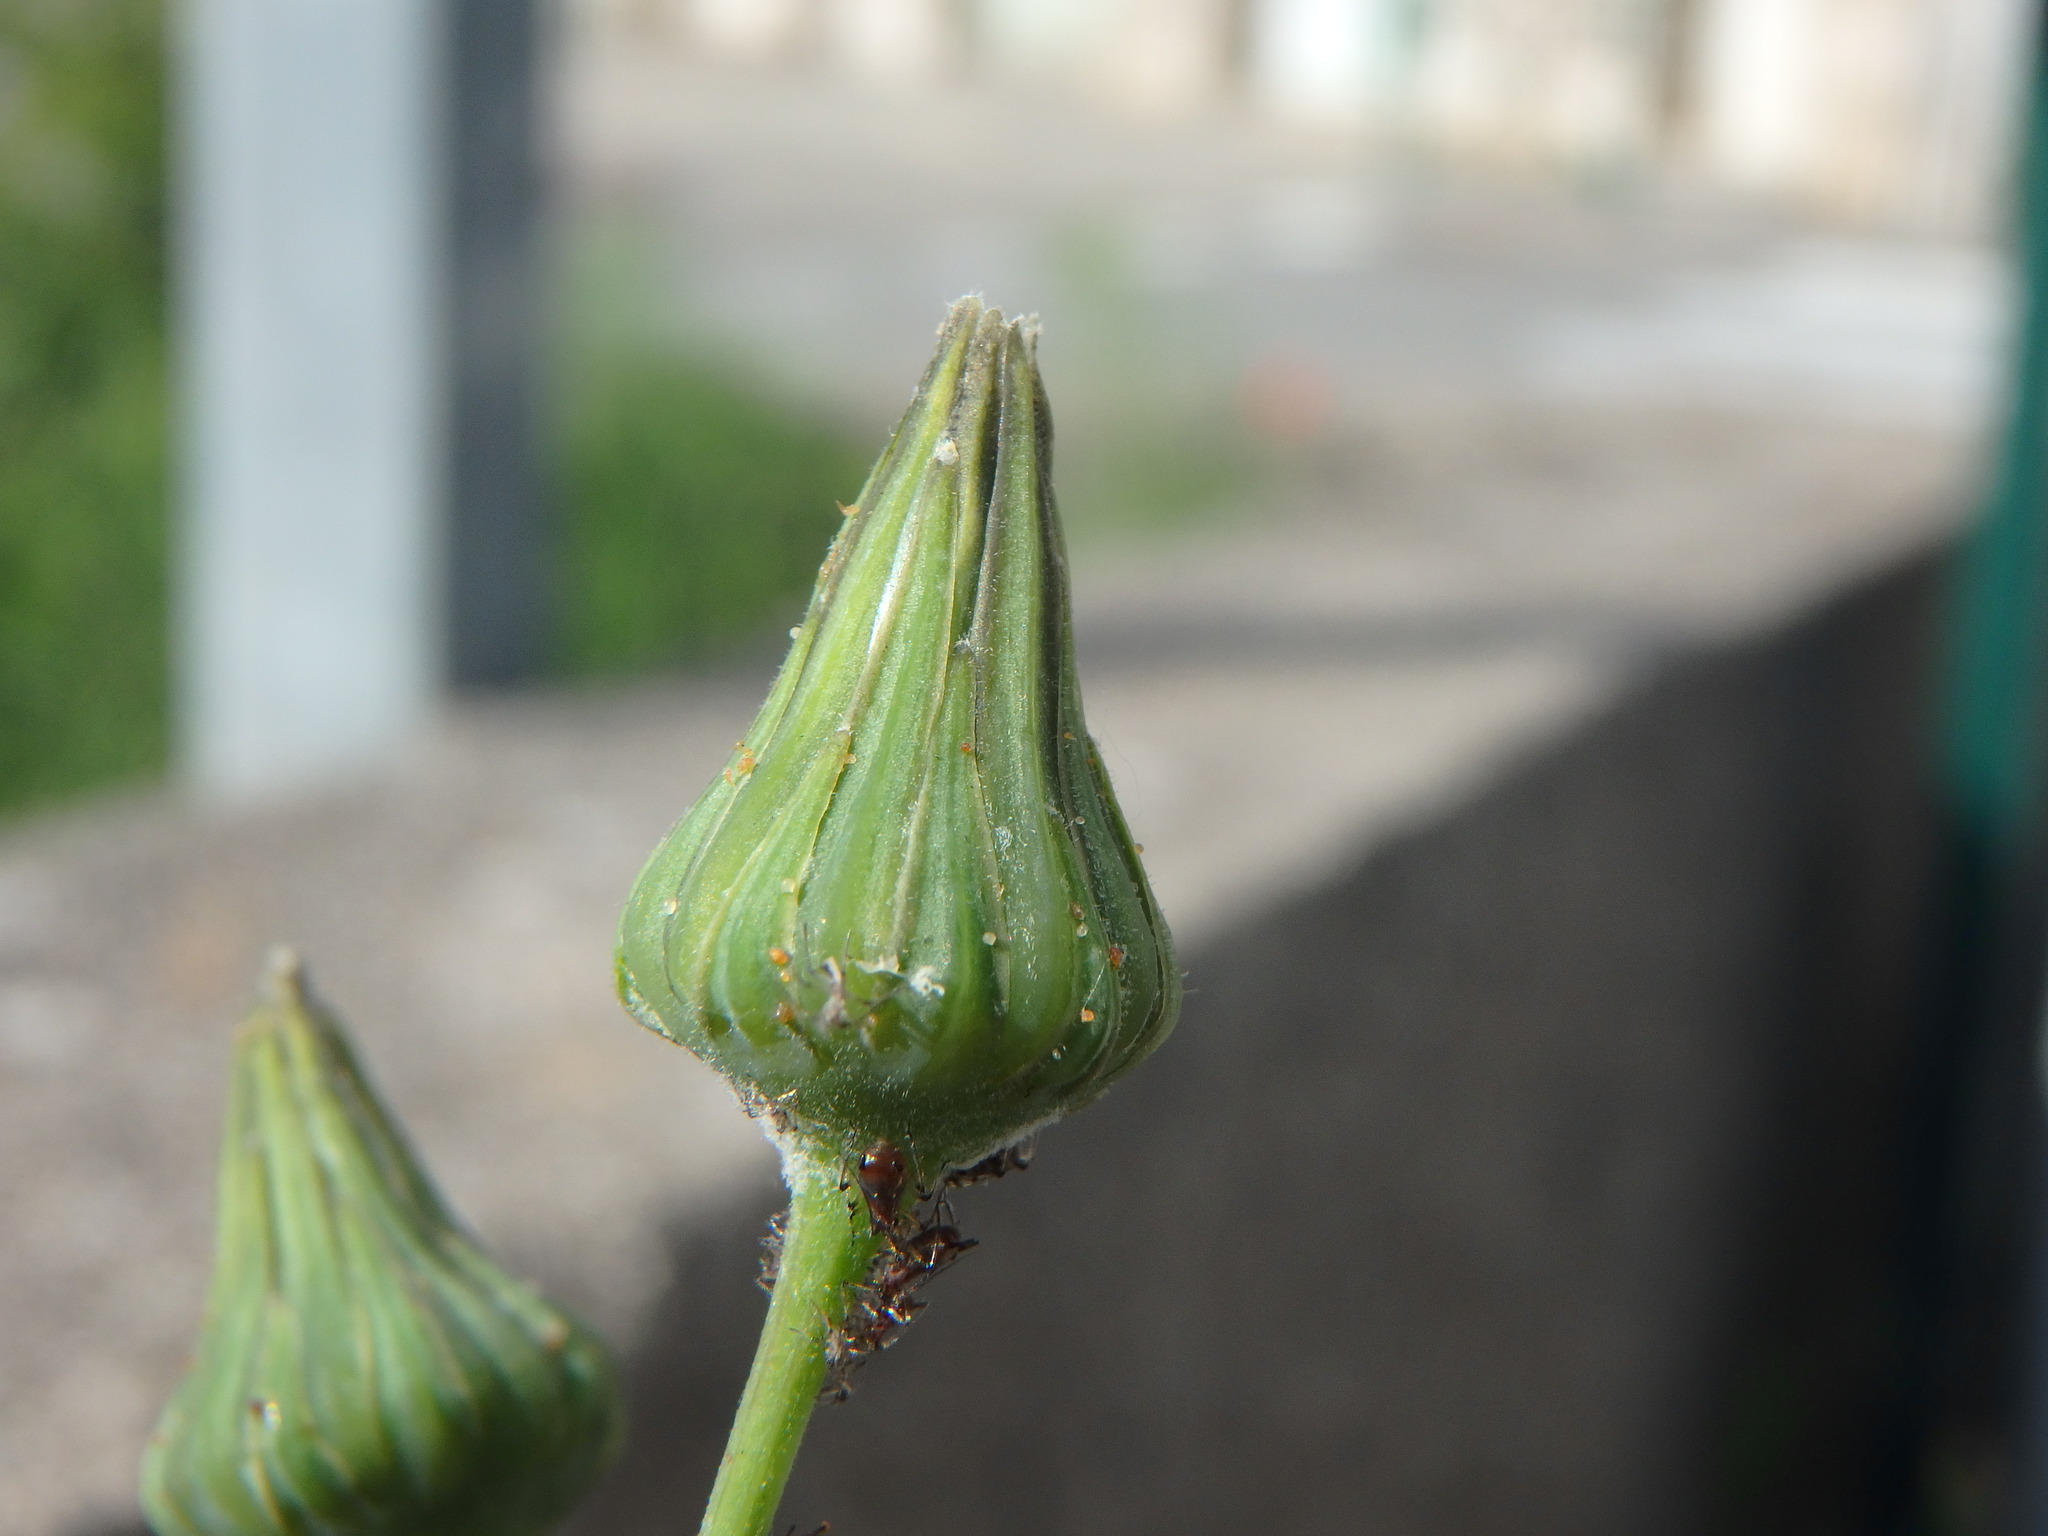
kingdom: Plantae
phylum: Tracheophyta
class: Magnoliopsida
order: Asterales
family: Asteraceae
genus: Sonchus
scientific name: Sonchus asper
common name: Prickly sow-thistle
